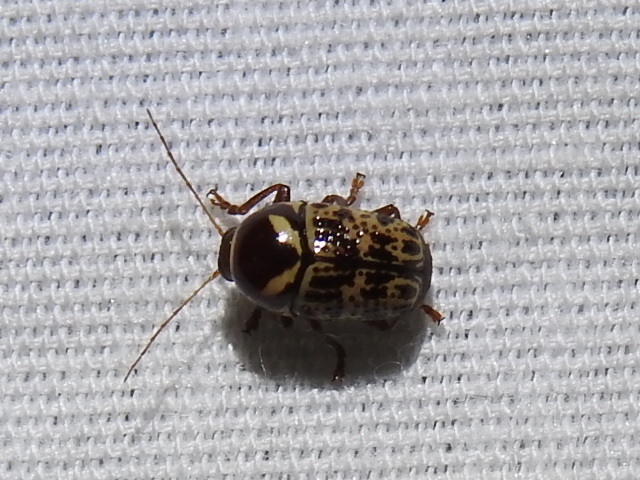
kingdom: Animalia
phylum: Arthropoda
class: Insecta
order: Coleoptera
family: Chrysomelidae
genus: Cryptocephalus
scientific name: Cryptocephalus cribripennis
